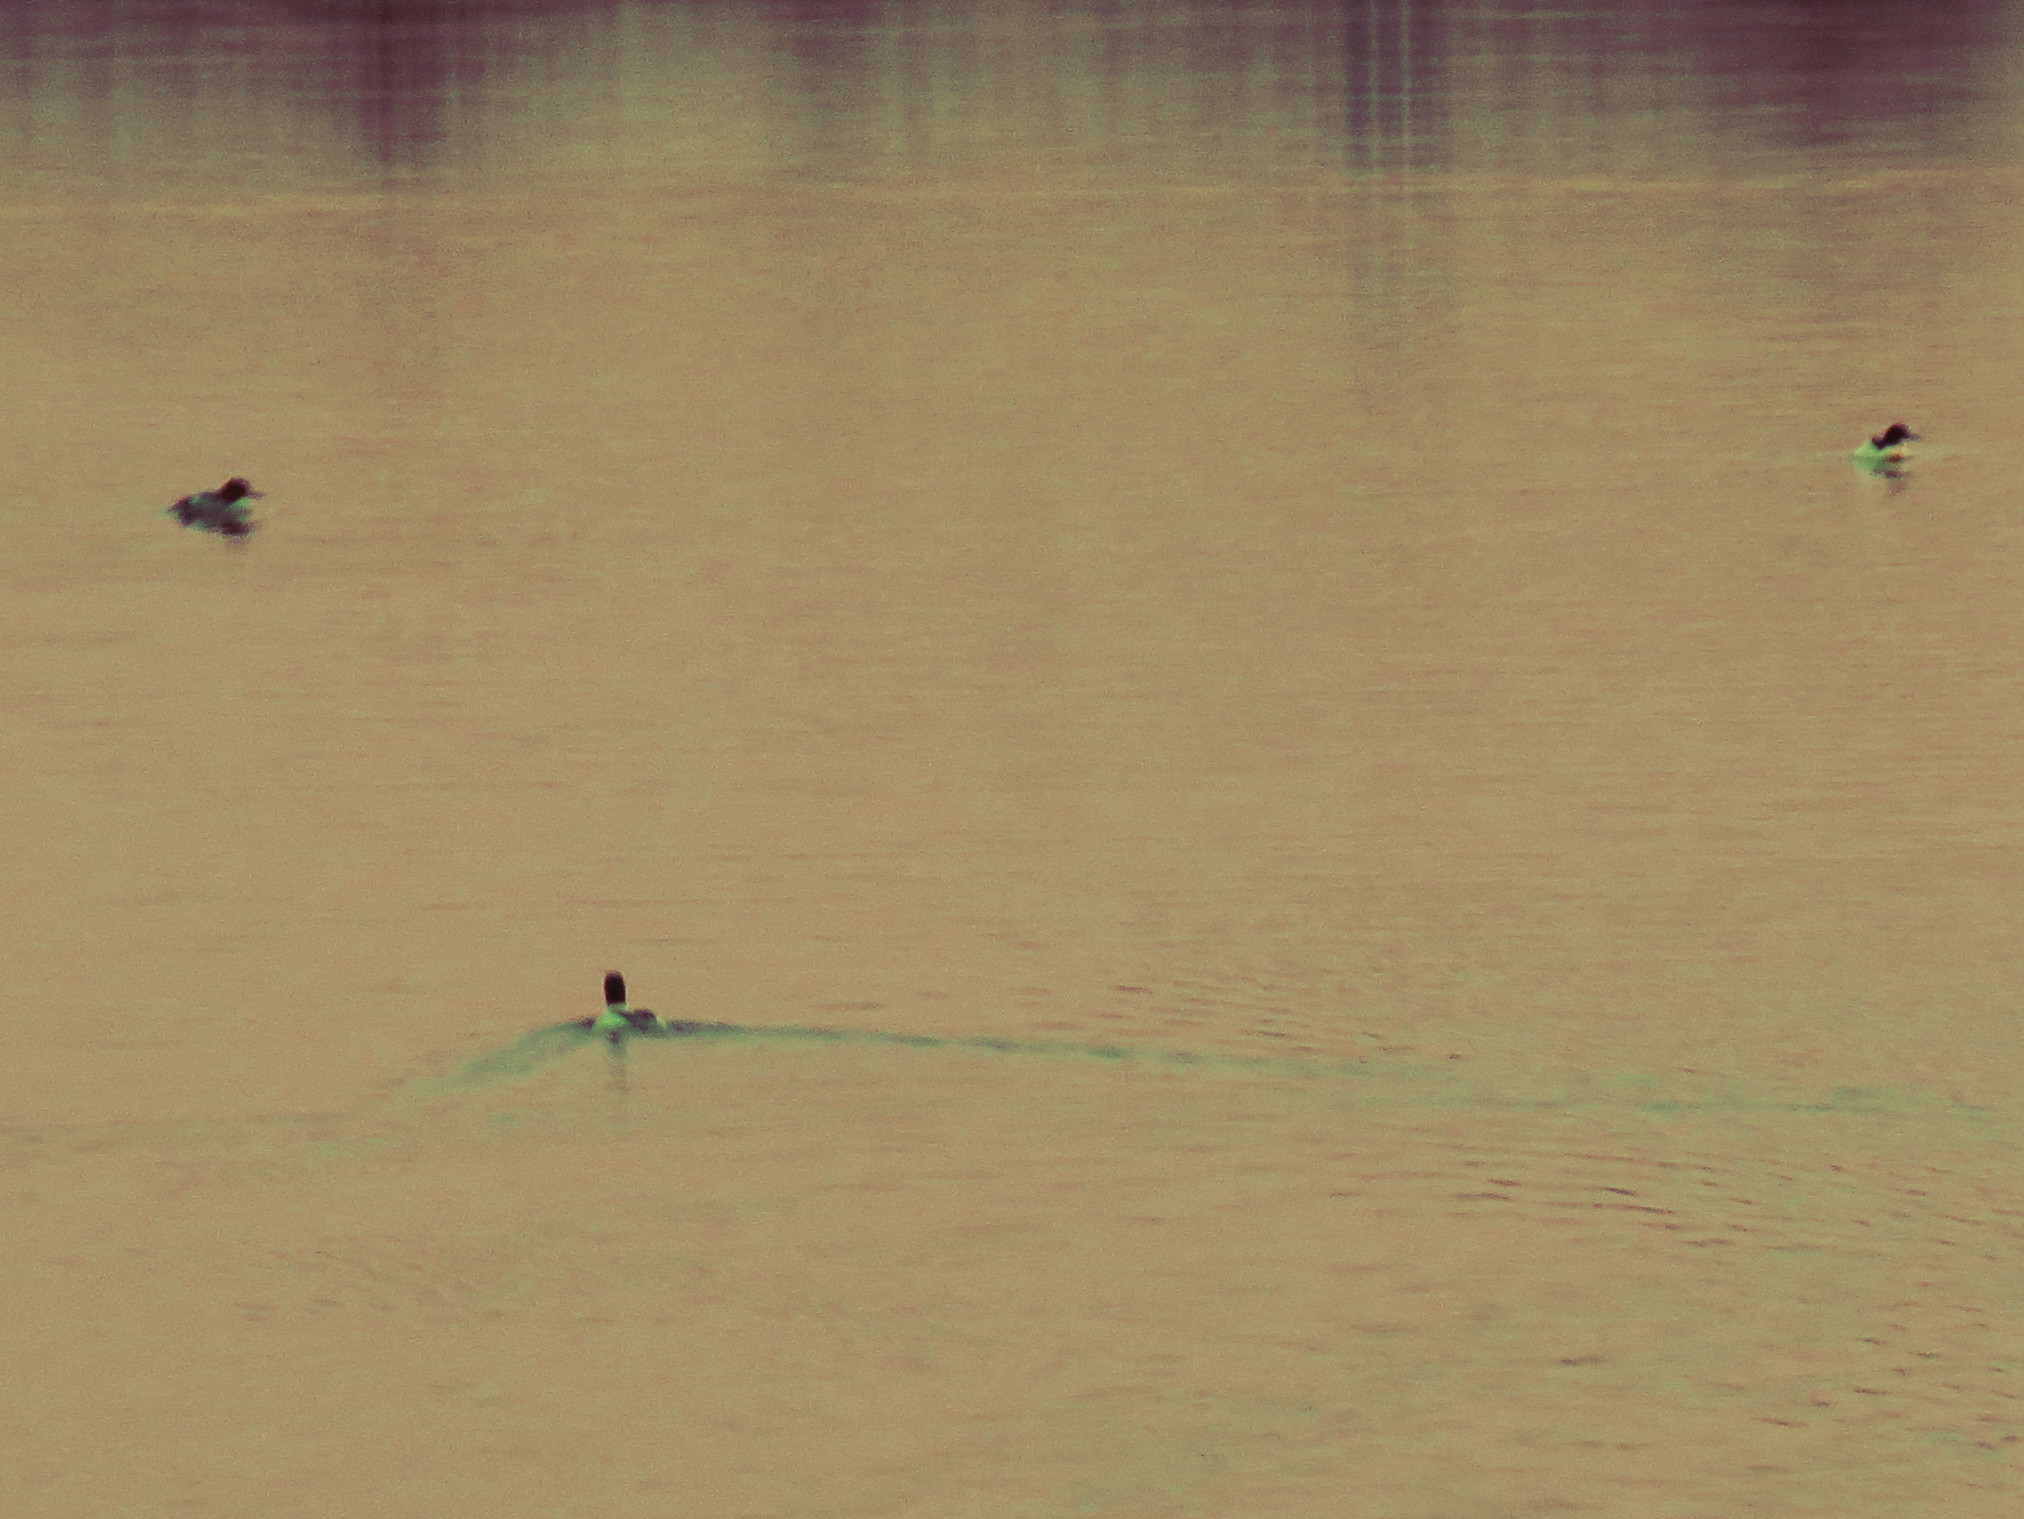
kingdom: Animalia
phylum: Chordata
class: Aves
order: Anseriformes
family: Anatidae
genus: Mergus
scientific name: Mergus merganser
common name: Common merganser
